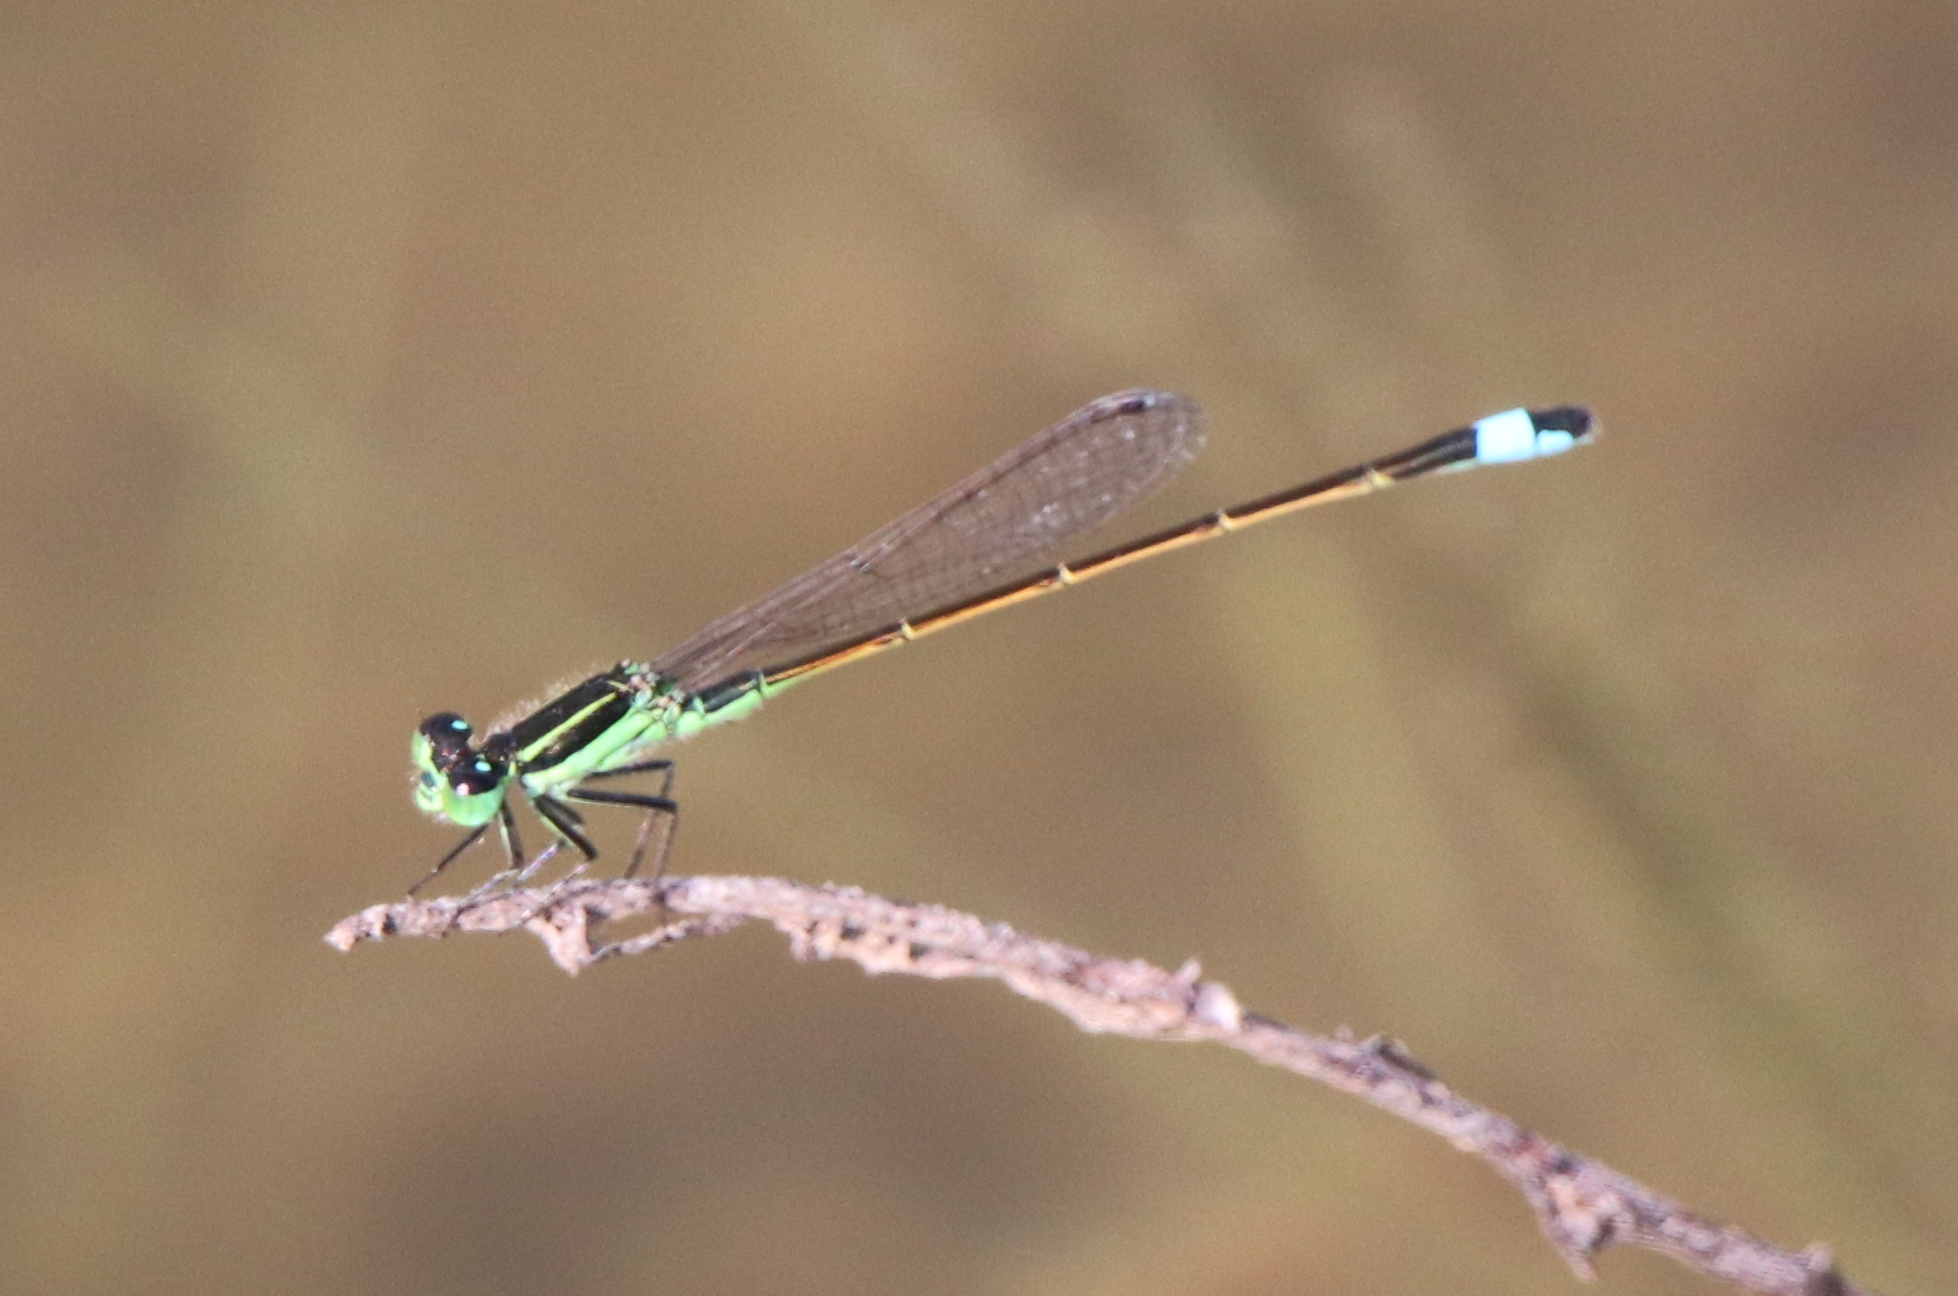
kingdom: Animalia
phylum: Arthropoda
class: Insecta
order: Odonata
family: Coenagrionidae
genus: Ischnura
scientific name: Ischnura ramburii
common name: Rambur's forktail
